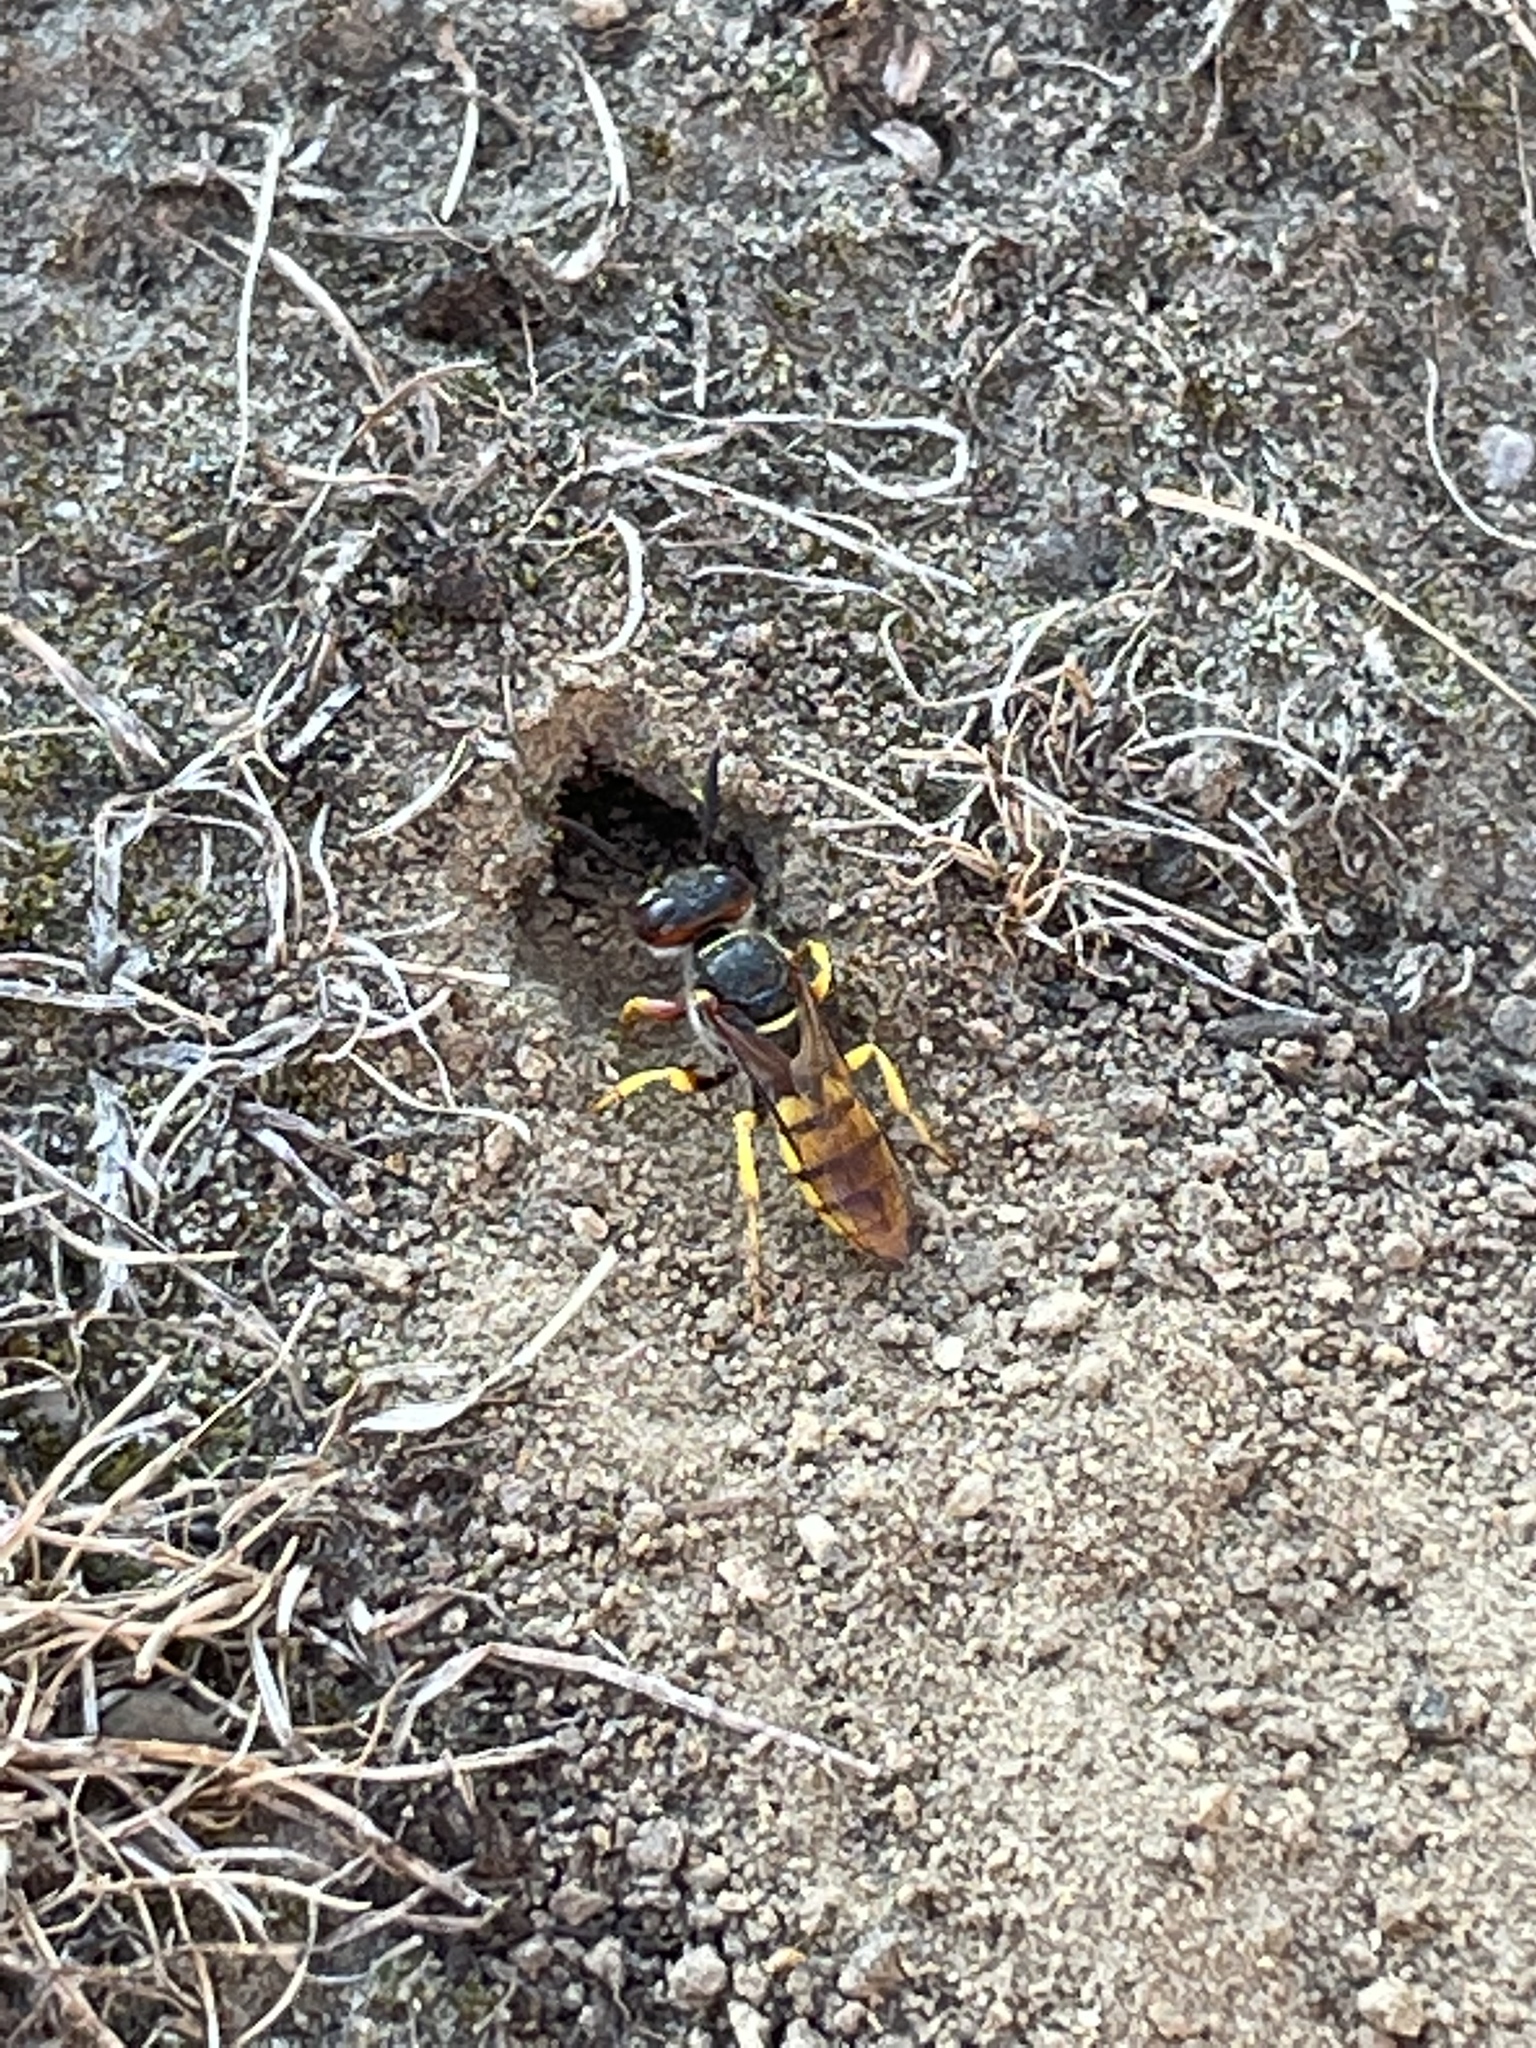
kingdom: Animalia
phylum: Arthropoda
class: Insecta
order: Hymenoptera
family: Crabronidae
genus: Philanthus
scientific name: Philanthus triangulum
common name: Bee wolf
